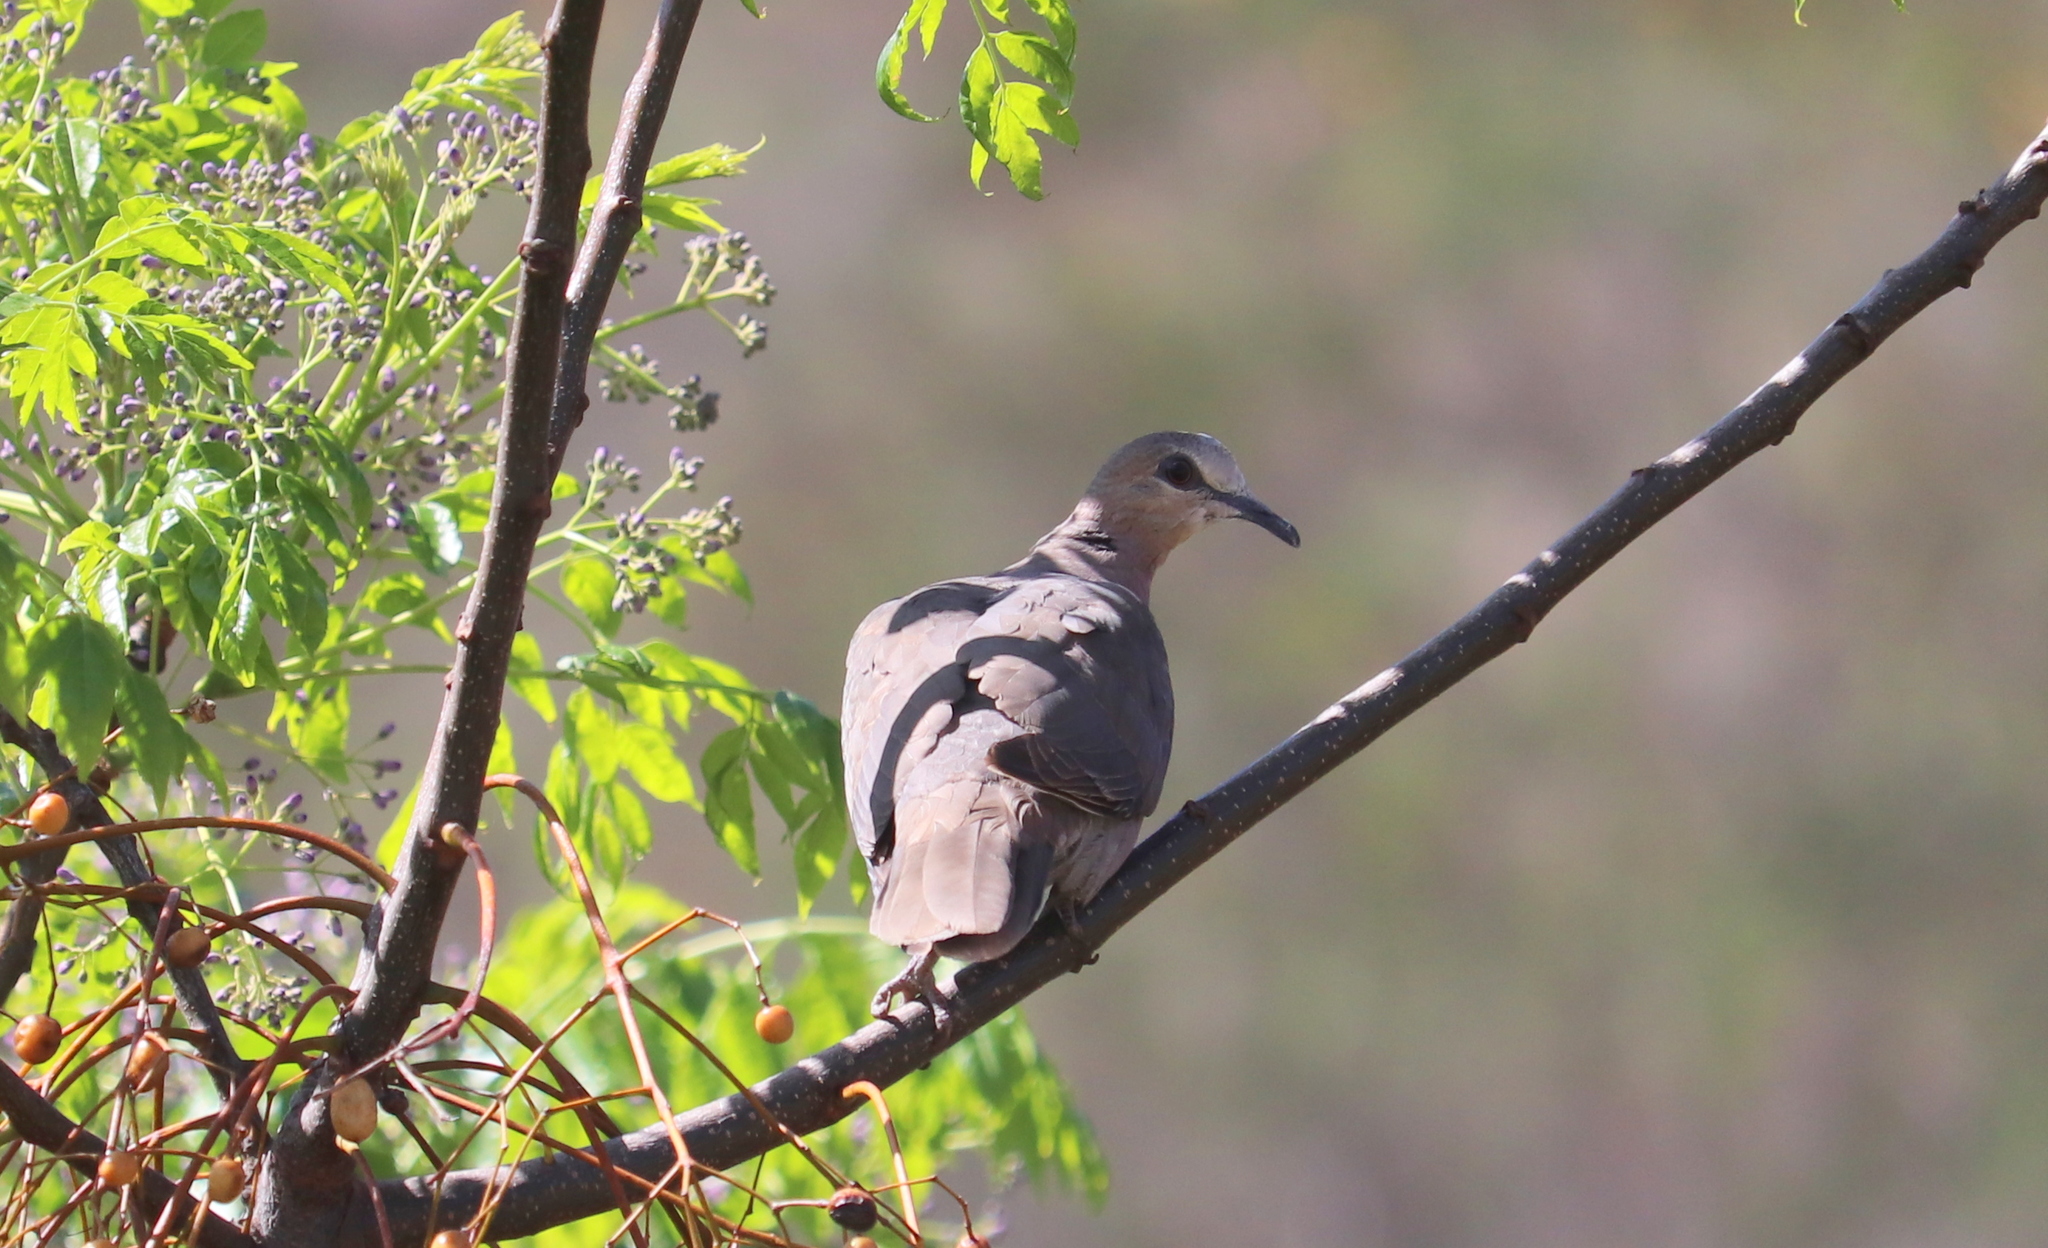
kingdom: Animalia
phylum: Chordata
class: Aves
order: Columbiformes
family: Columbidae
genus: Streptopelia
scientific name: Streptopelia semitorquata
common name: Red-eyed dove
